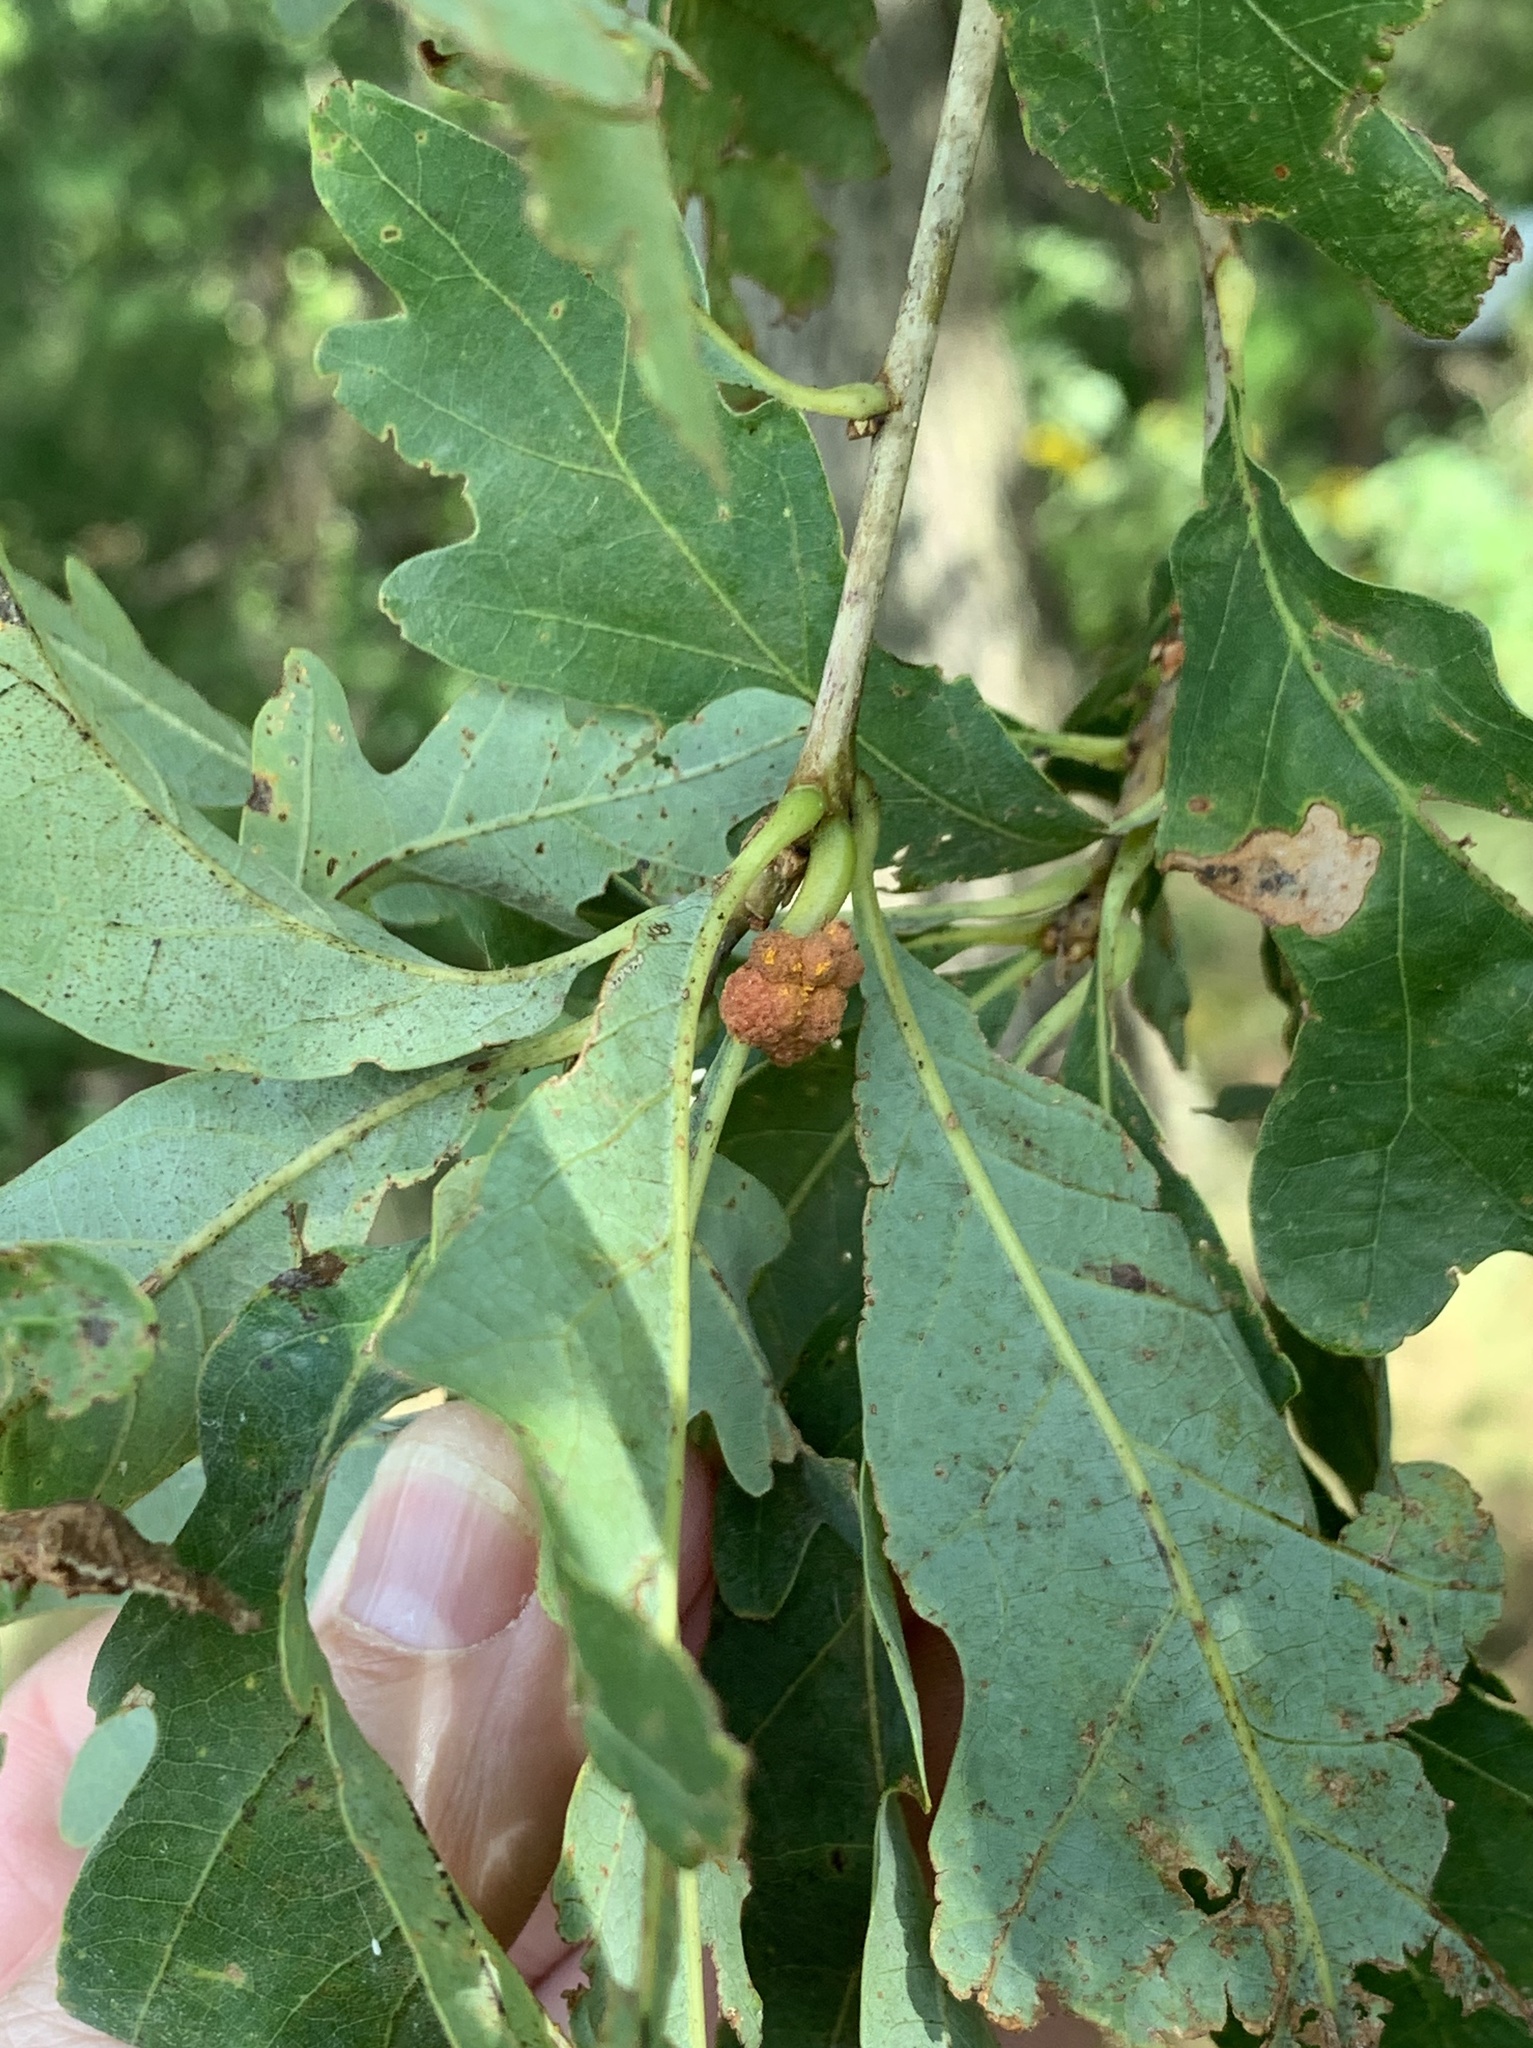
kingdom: Animalia
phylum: Arthropoda
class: Insecta
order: Hymenoptera
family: Cynipidae
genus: Andricus
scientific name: Andricus
